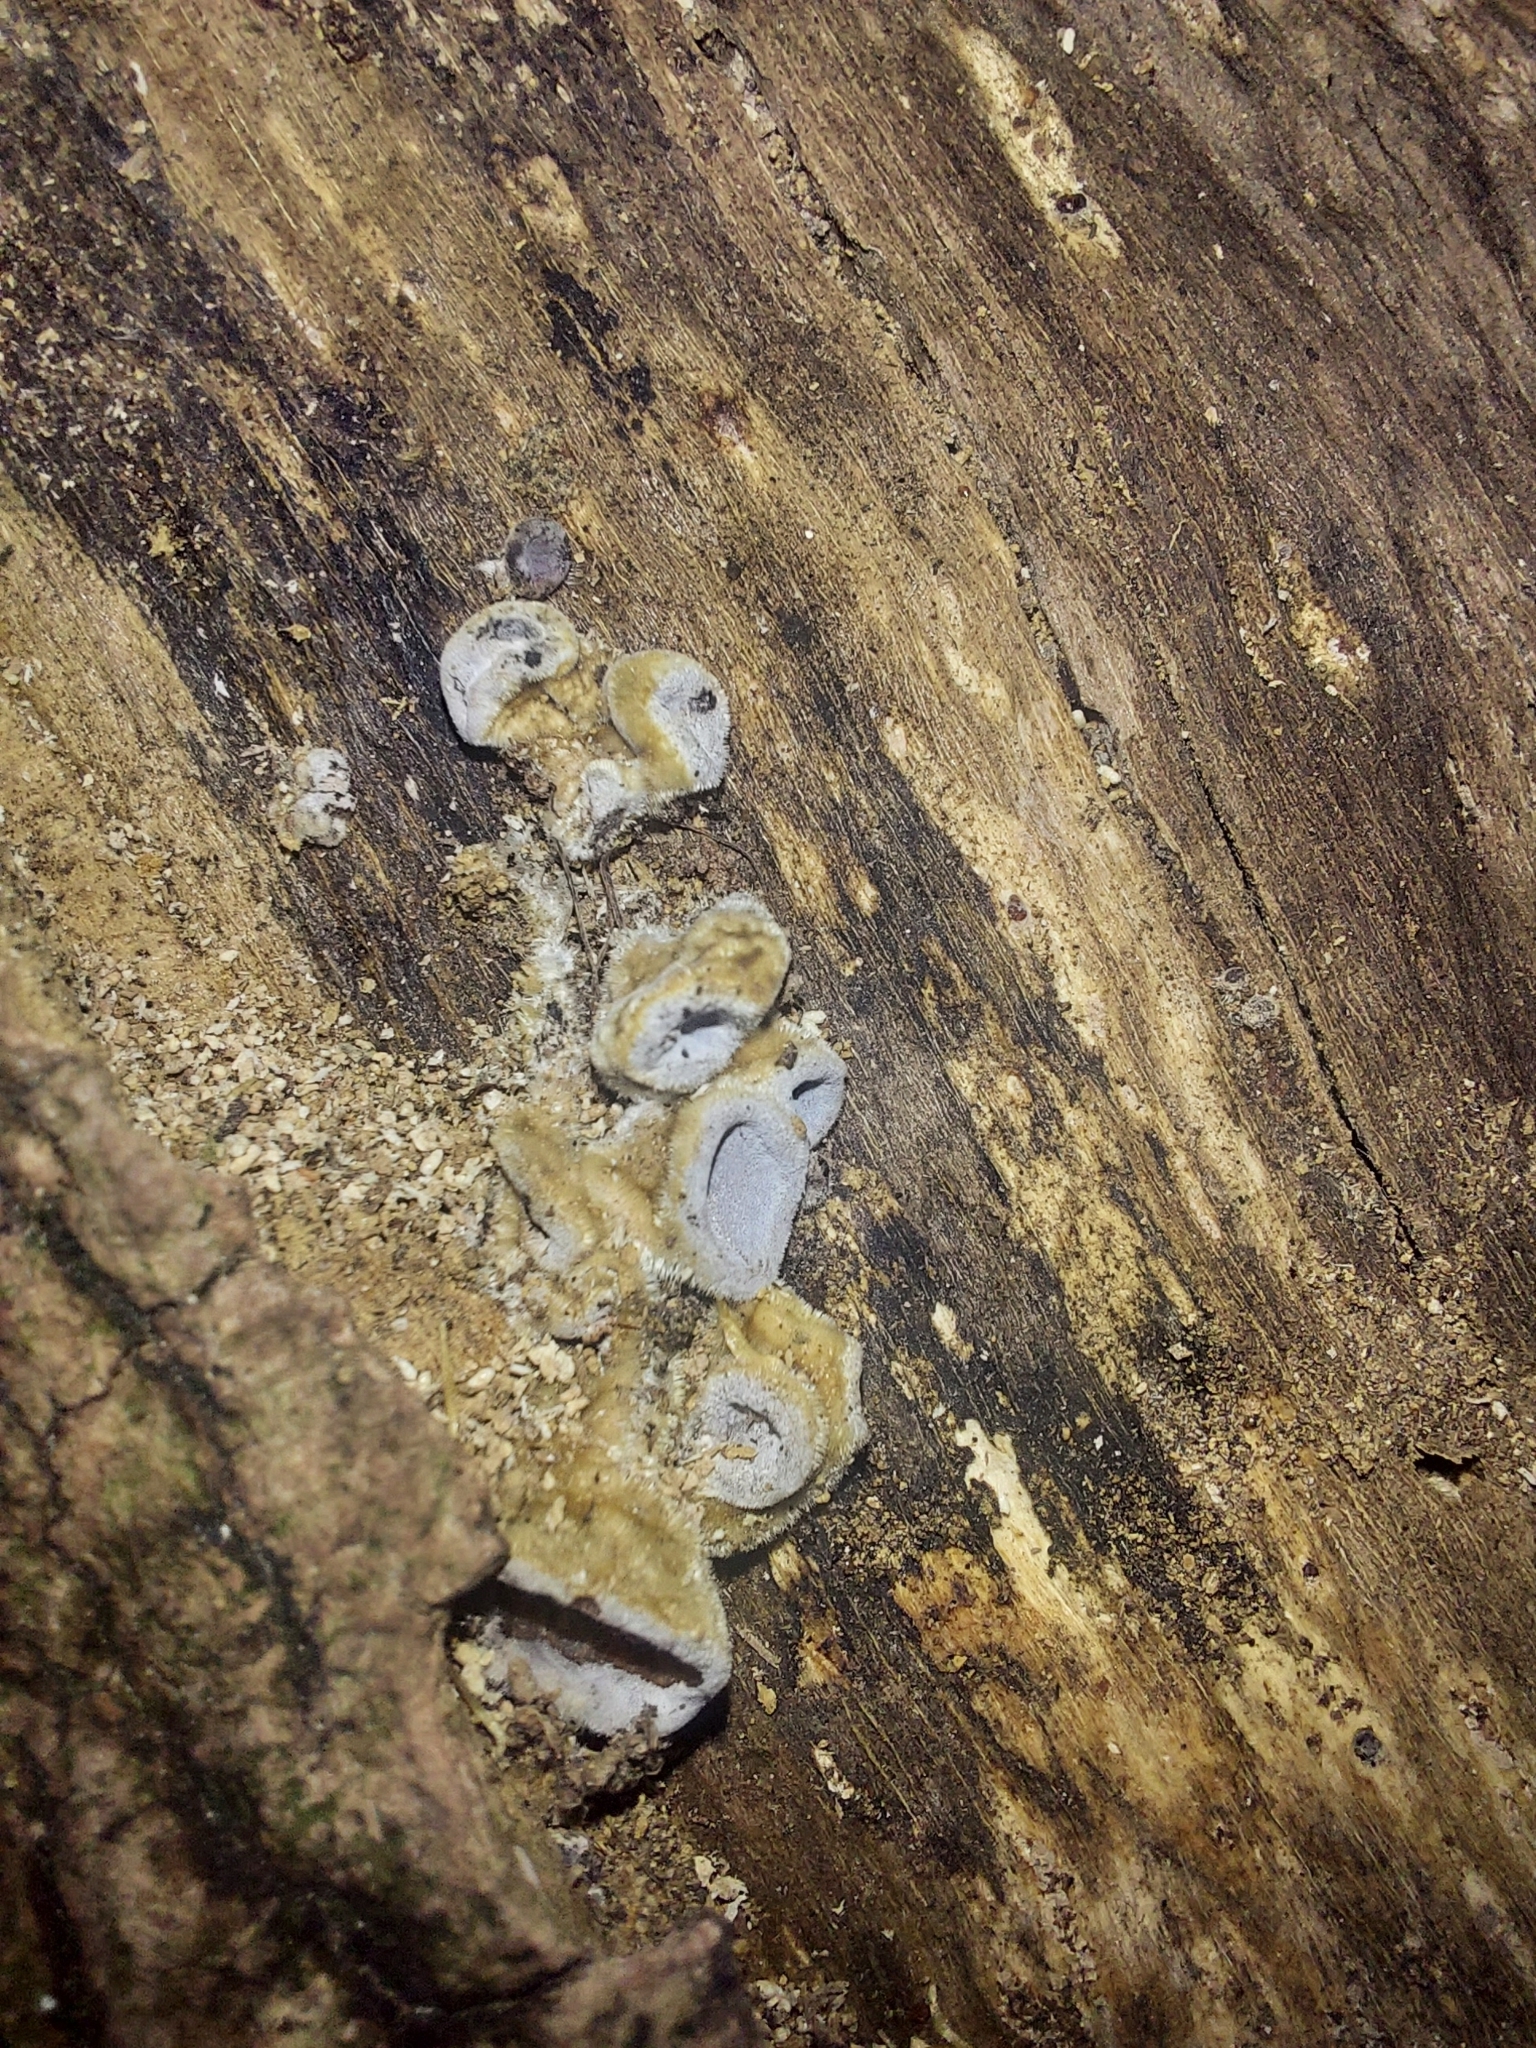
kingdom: Fungi
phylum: Basidiomycota
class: Agaricomycetes
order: Auriculariales
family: Auriculariaceae
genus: Auricularia
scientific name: Auricularia cornea
